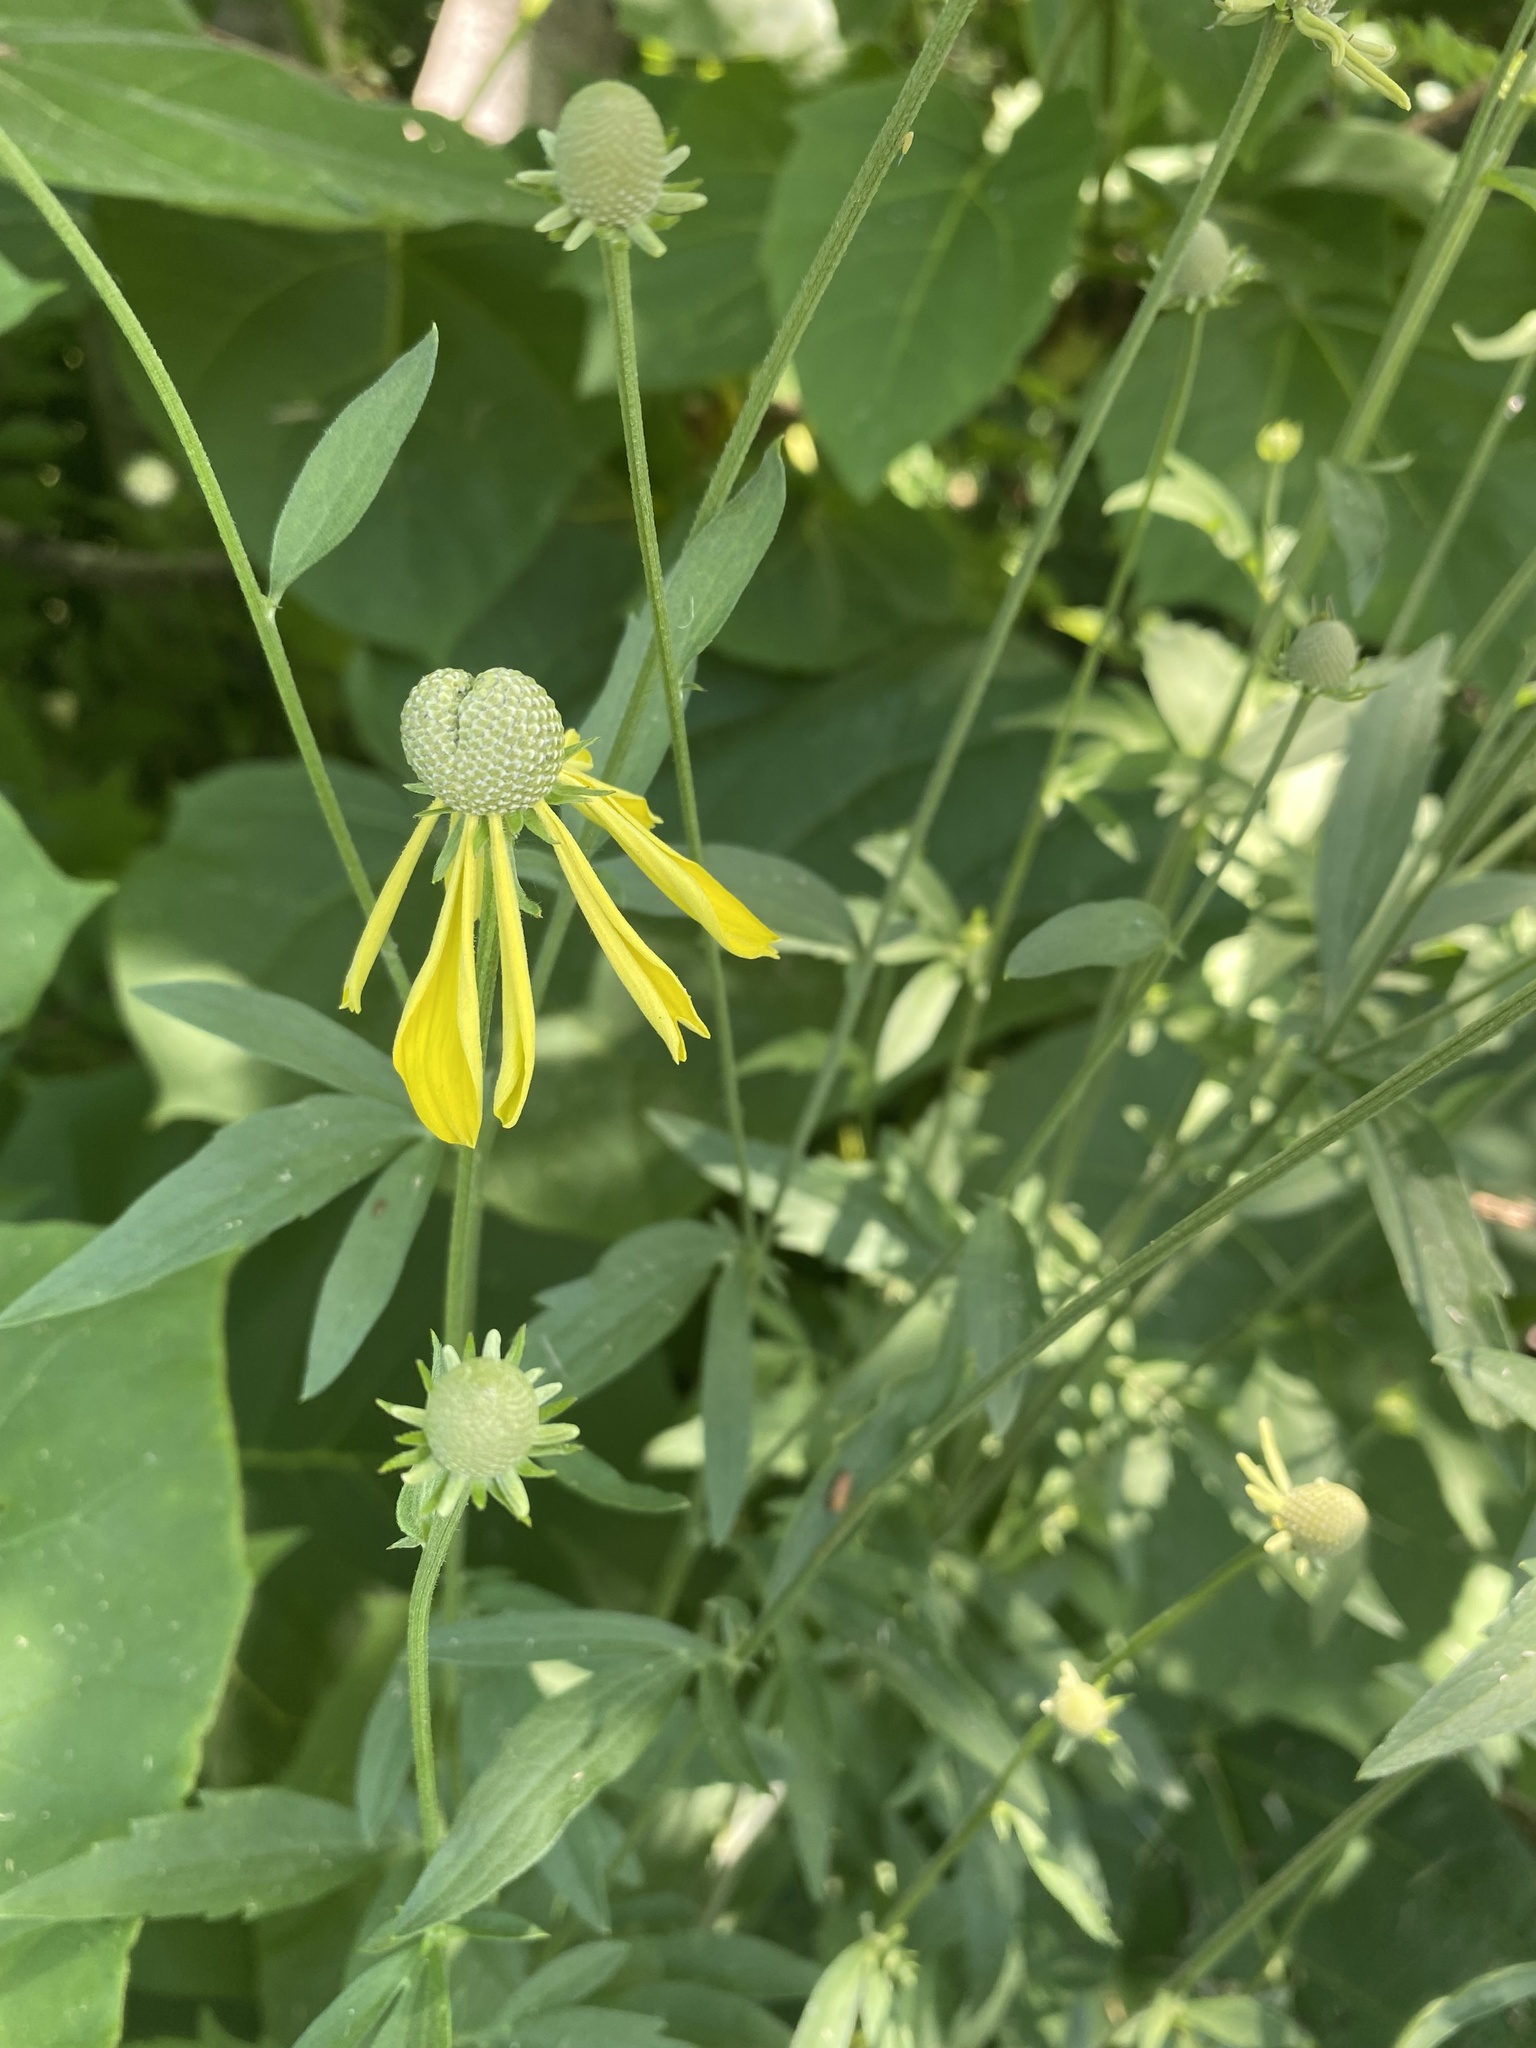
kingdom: Plantae
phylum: Tracheophyta
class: Magnoliopsida
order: Asterales
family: Asteraceae
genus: Rudbeckia
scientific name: Rudbeckia laciniata
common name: Coneflower
